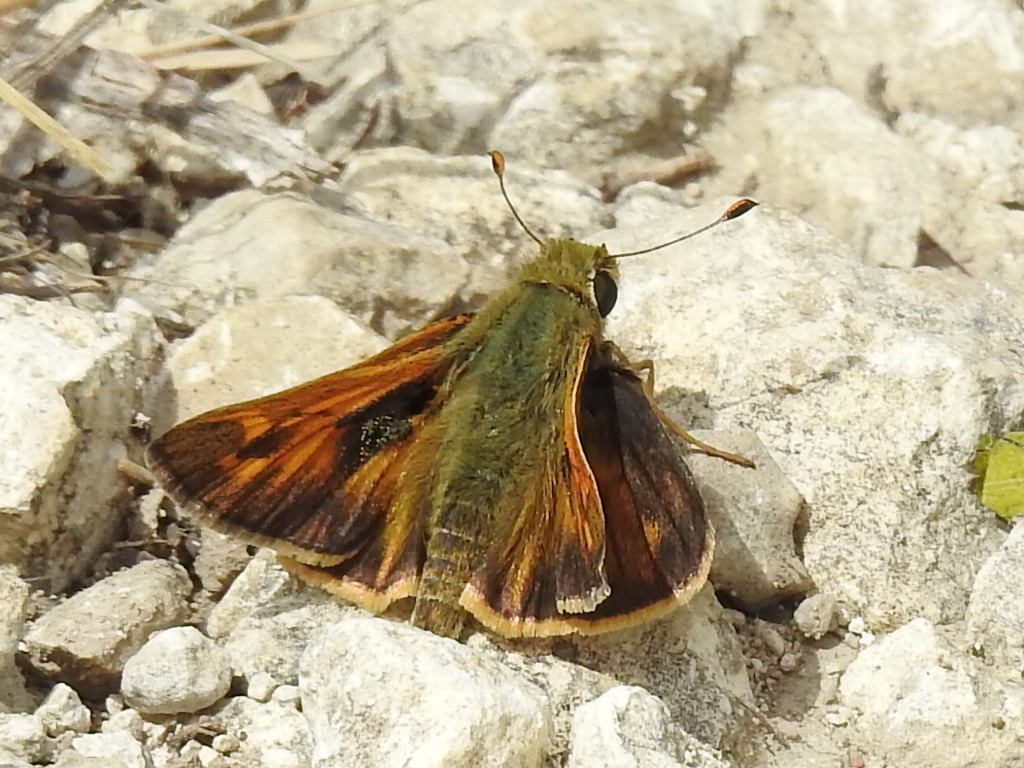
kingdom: Animalia
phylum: Arthropoda
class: Insecta
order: Lepidoptera
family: Hesperiidae
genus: Atalopedes
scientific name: Atalopedes
